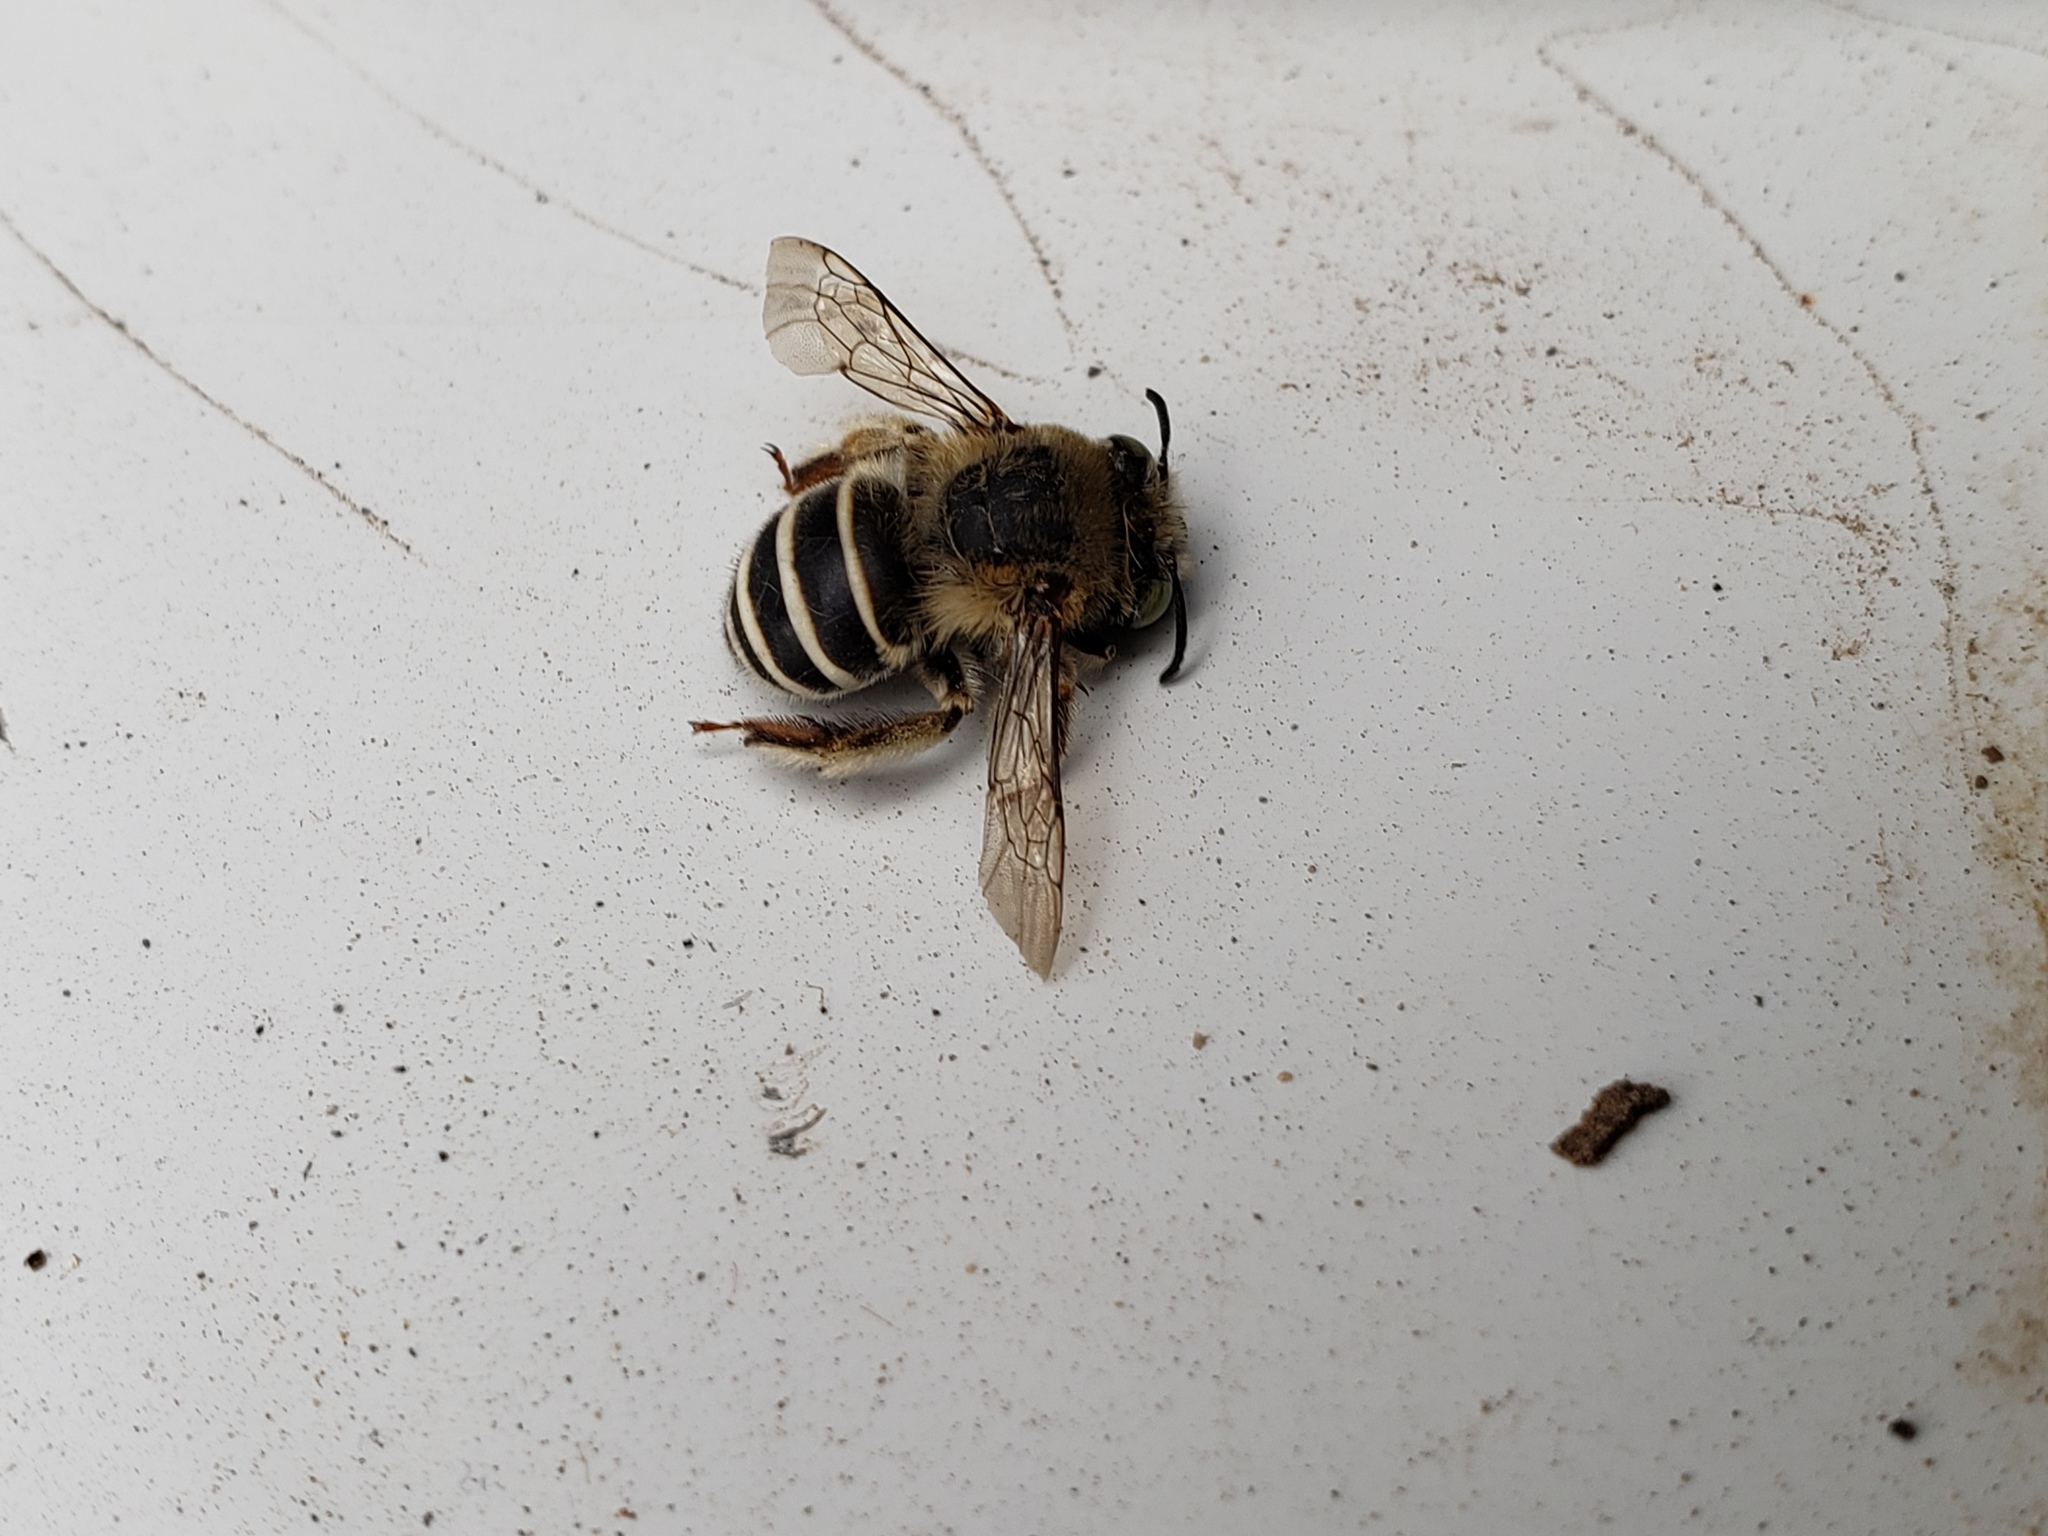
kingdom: Animalia
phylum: Arthropoda
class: Insecta
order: Hymenoptera
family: Apidae
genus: Anthophora
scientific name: Anthophora californica
